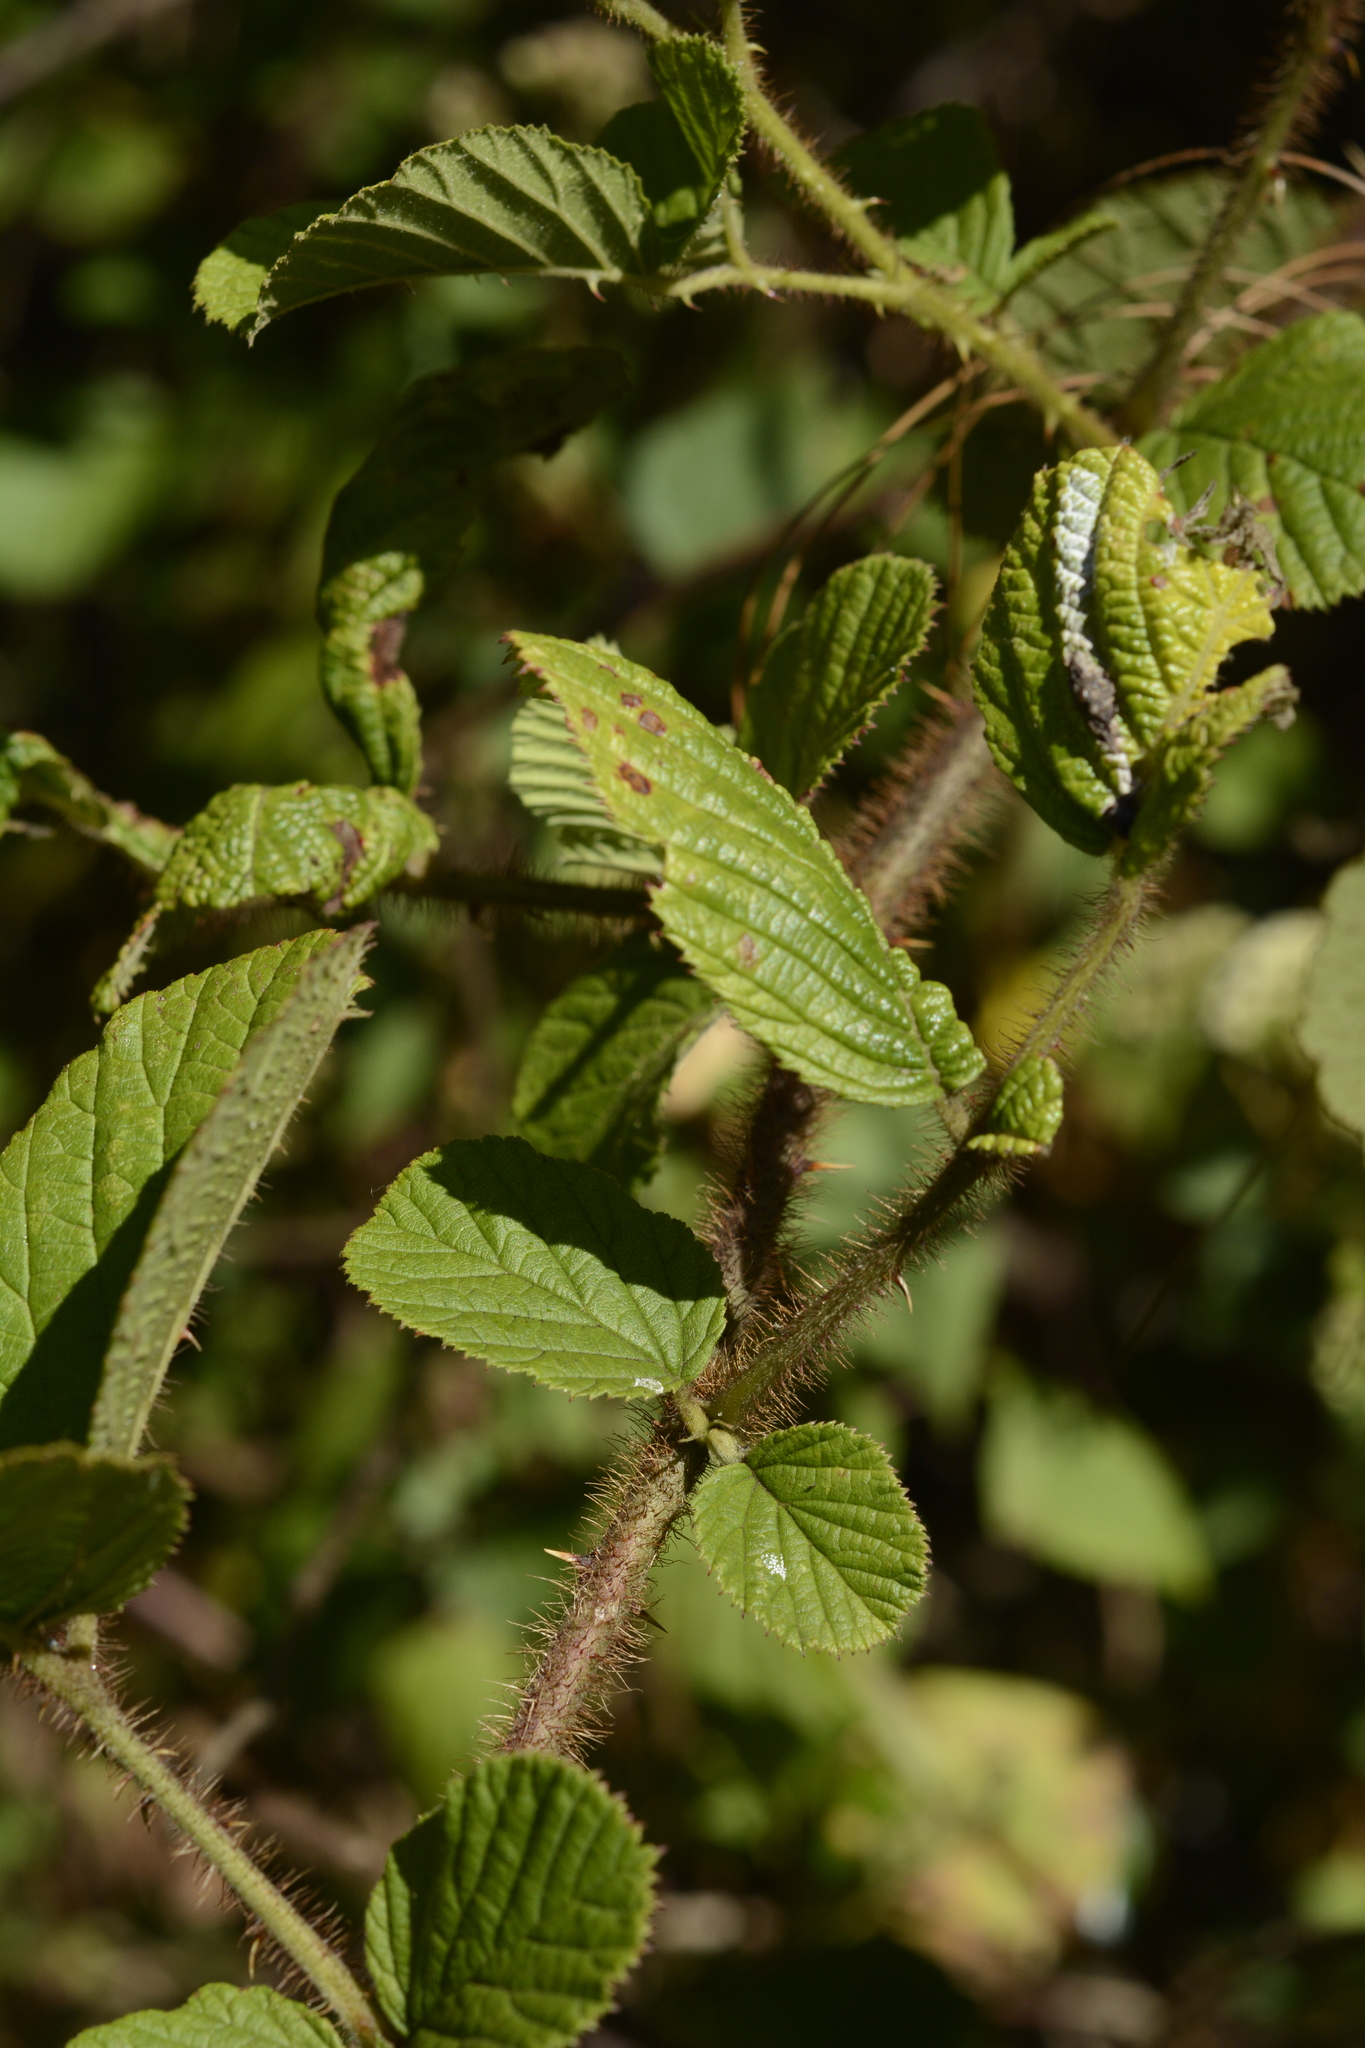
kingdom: Plantae
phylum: Tracheophyta
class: Magnoliopsida
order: Rosales
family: Rosaceae
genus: Rubus
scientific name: Rubus ellipticus
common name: Cheeseberry
